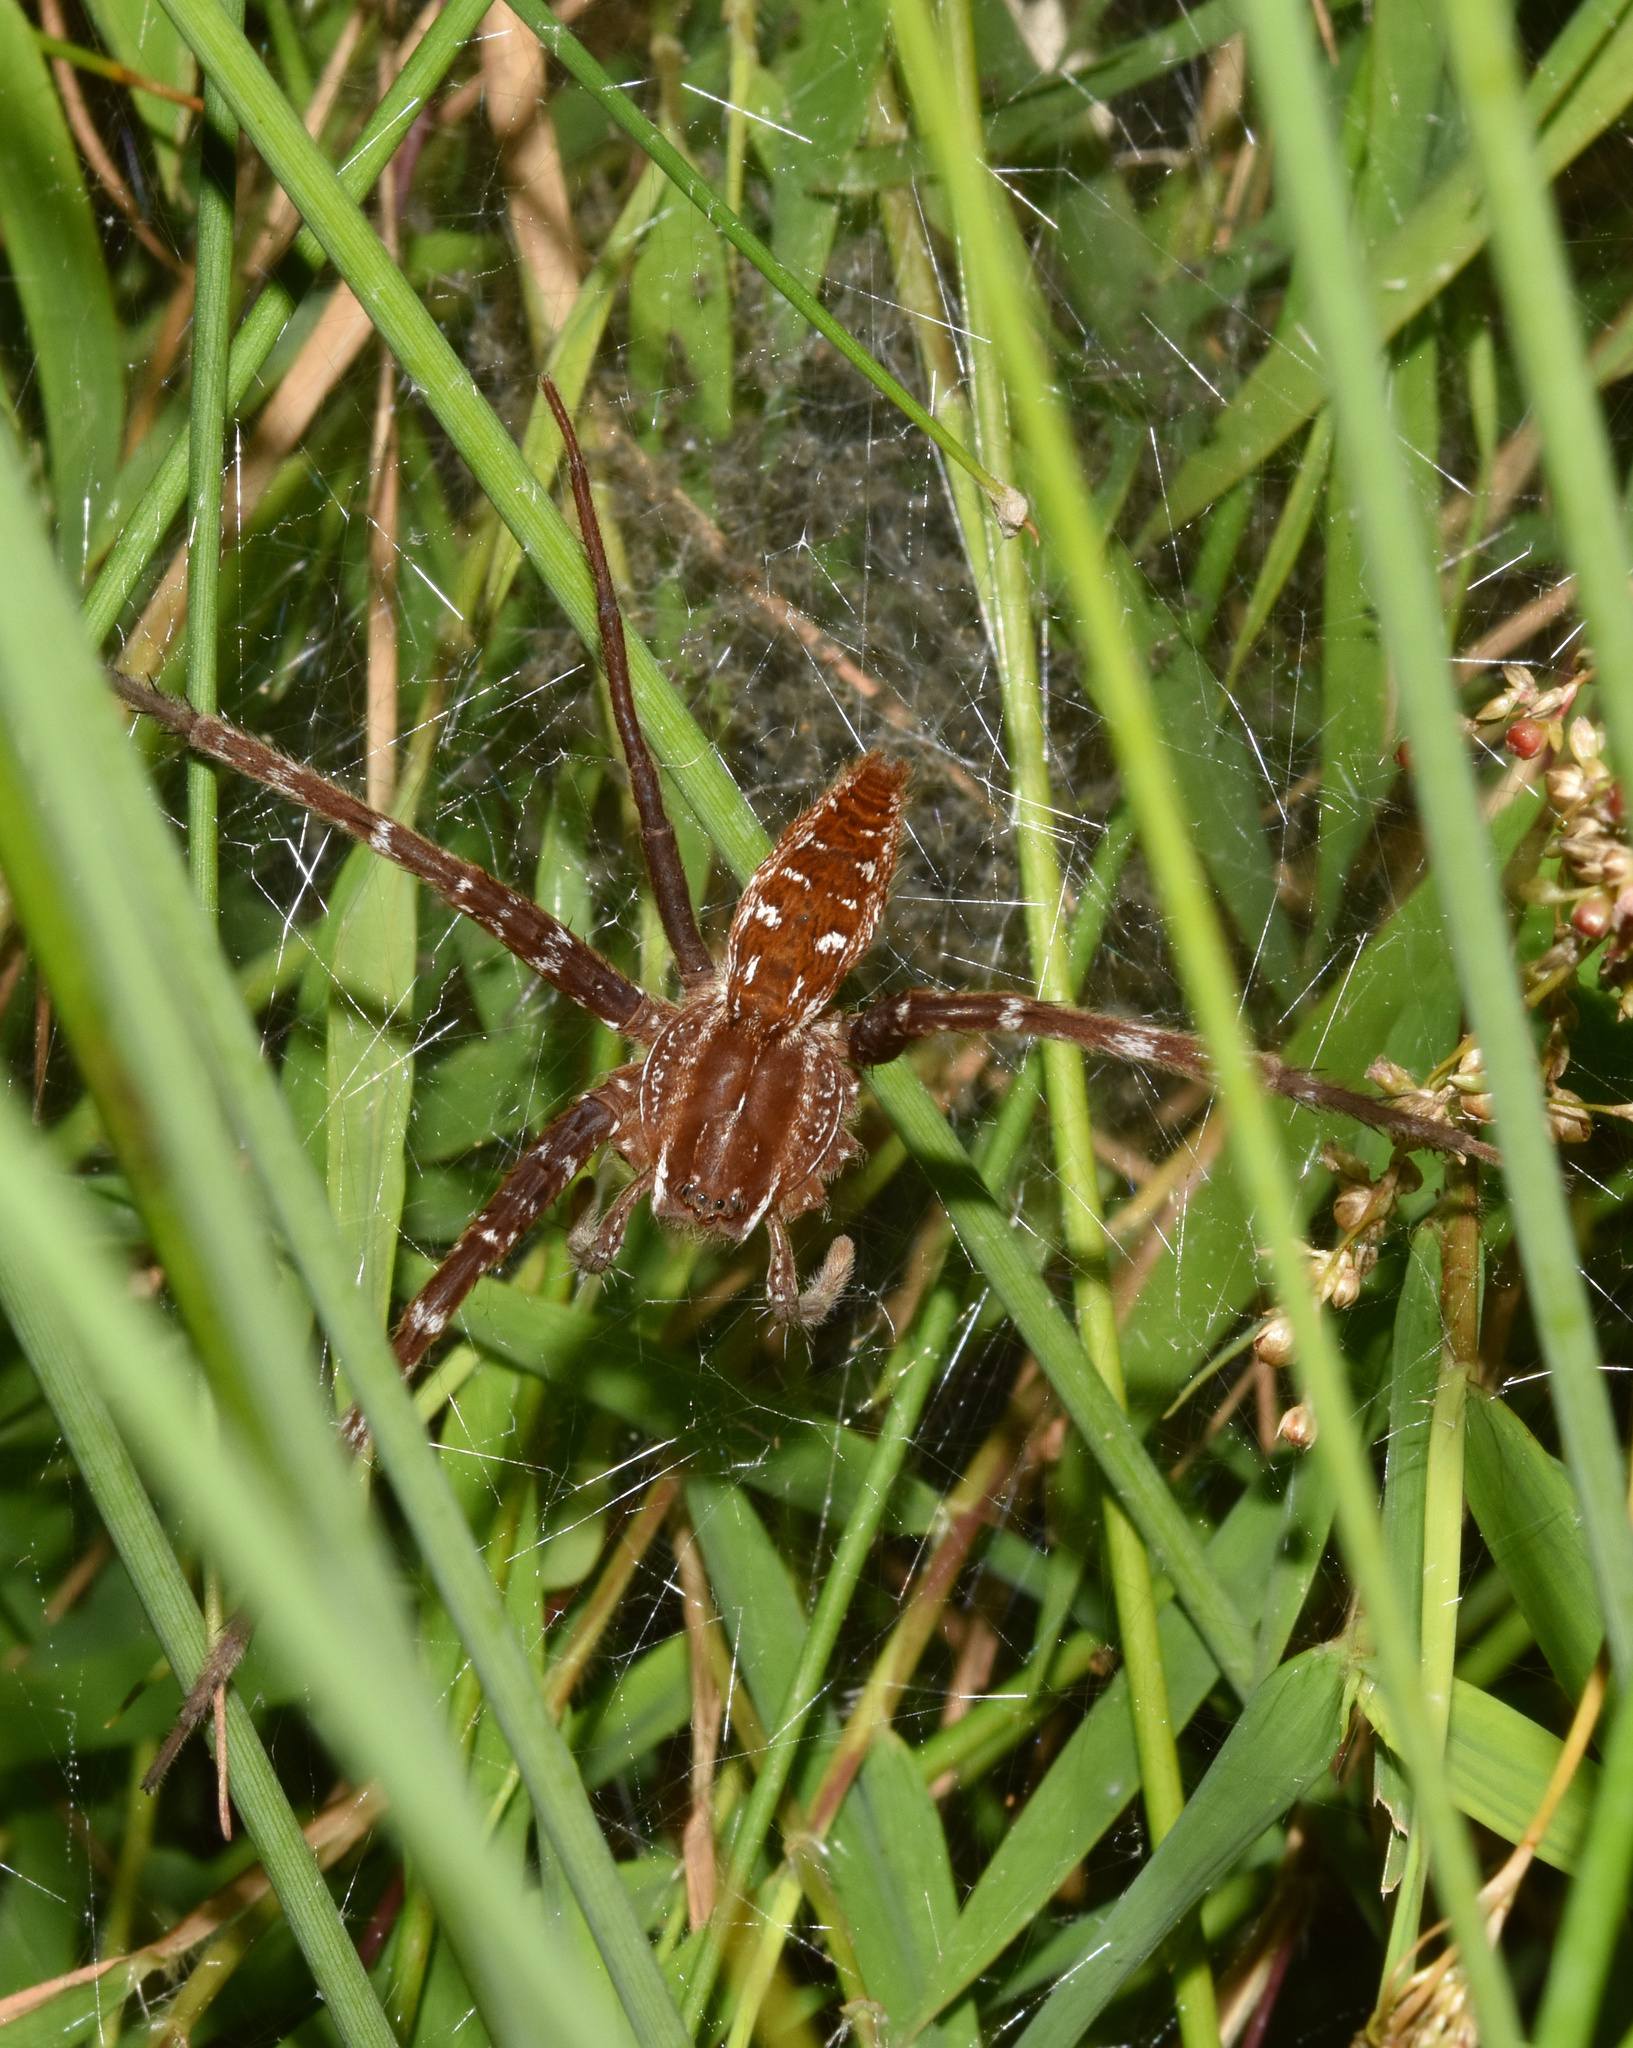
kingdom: Animalia
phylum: Arthropoda
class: Arachnida
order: Araneae
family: Pisauridae
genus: Nilus
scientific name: Nilus radiatolineatus
